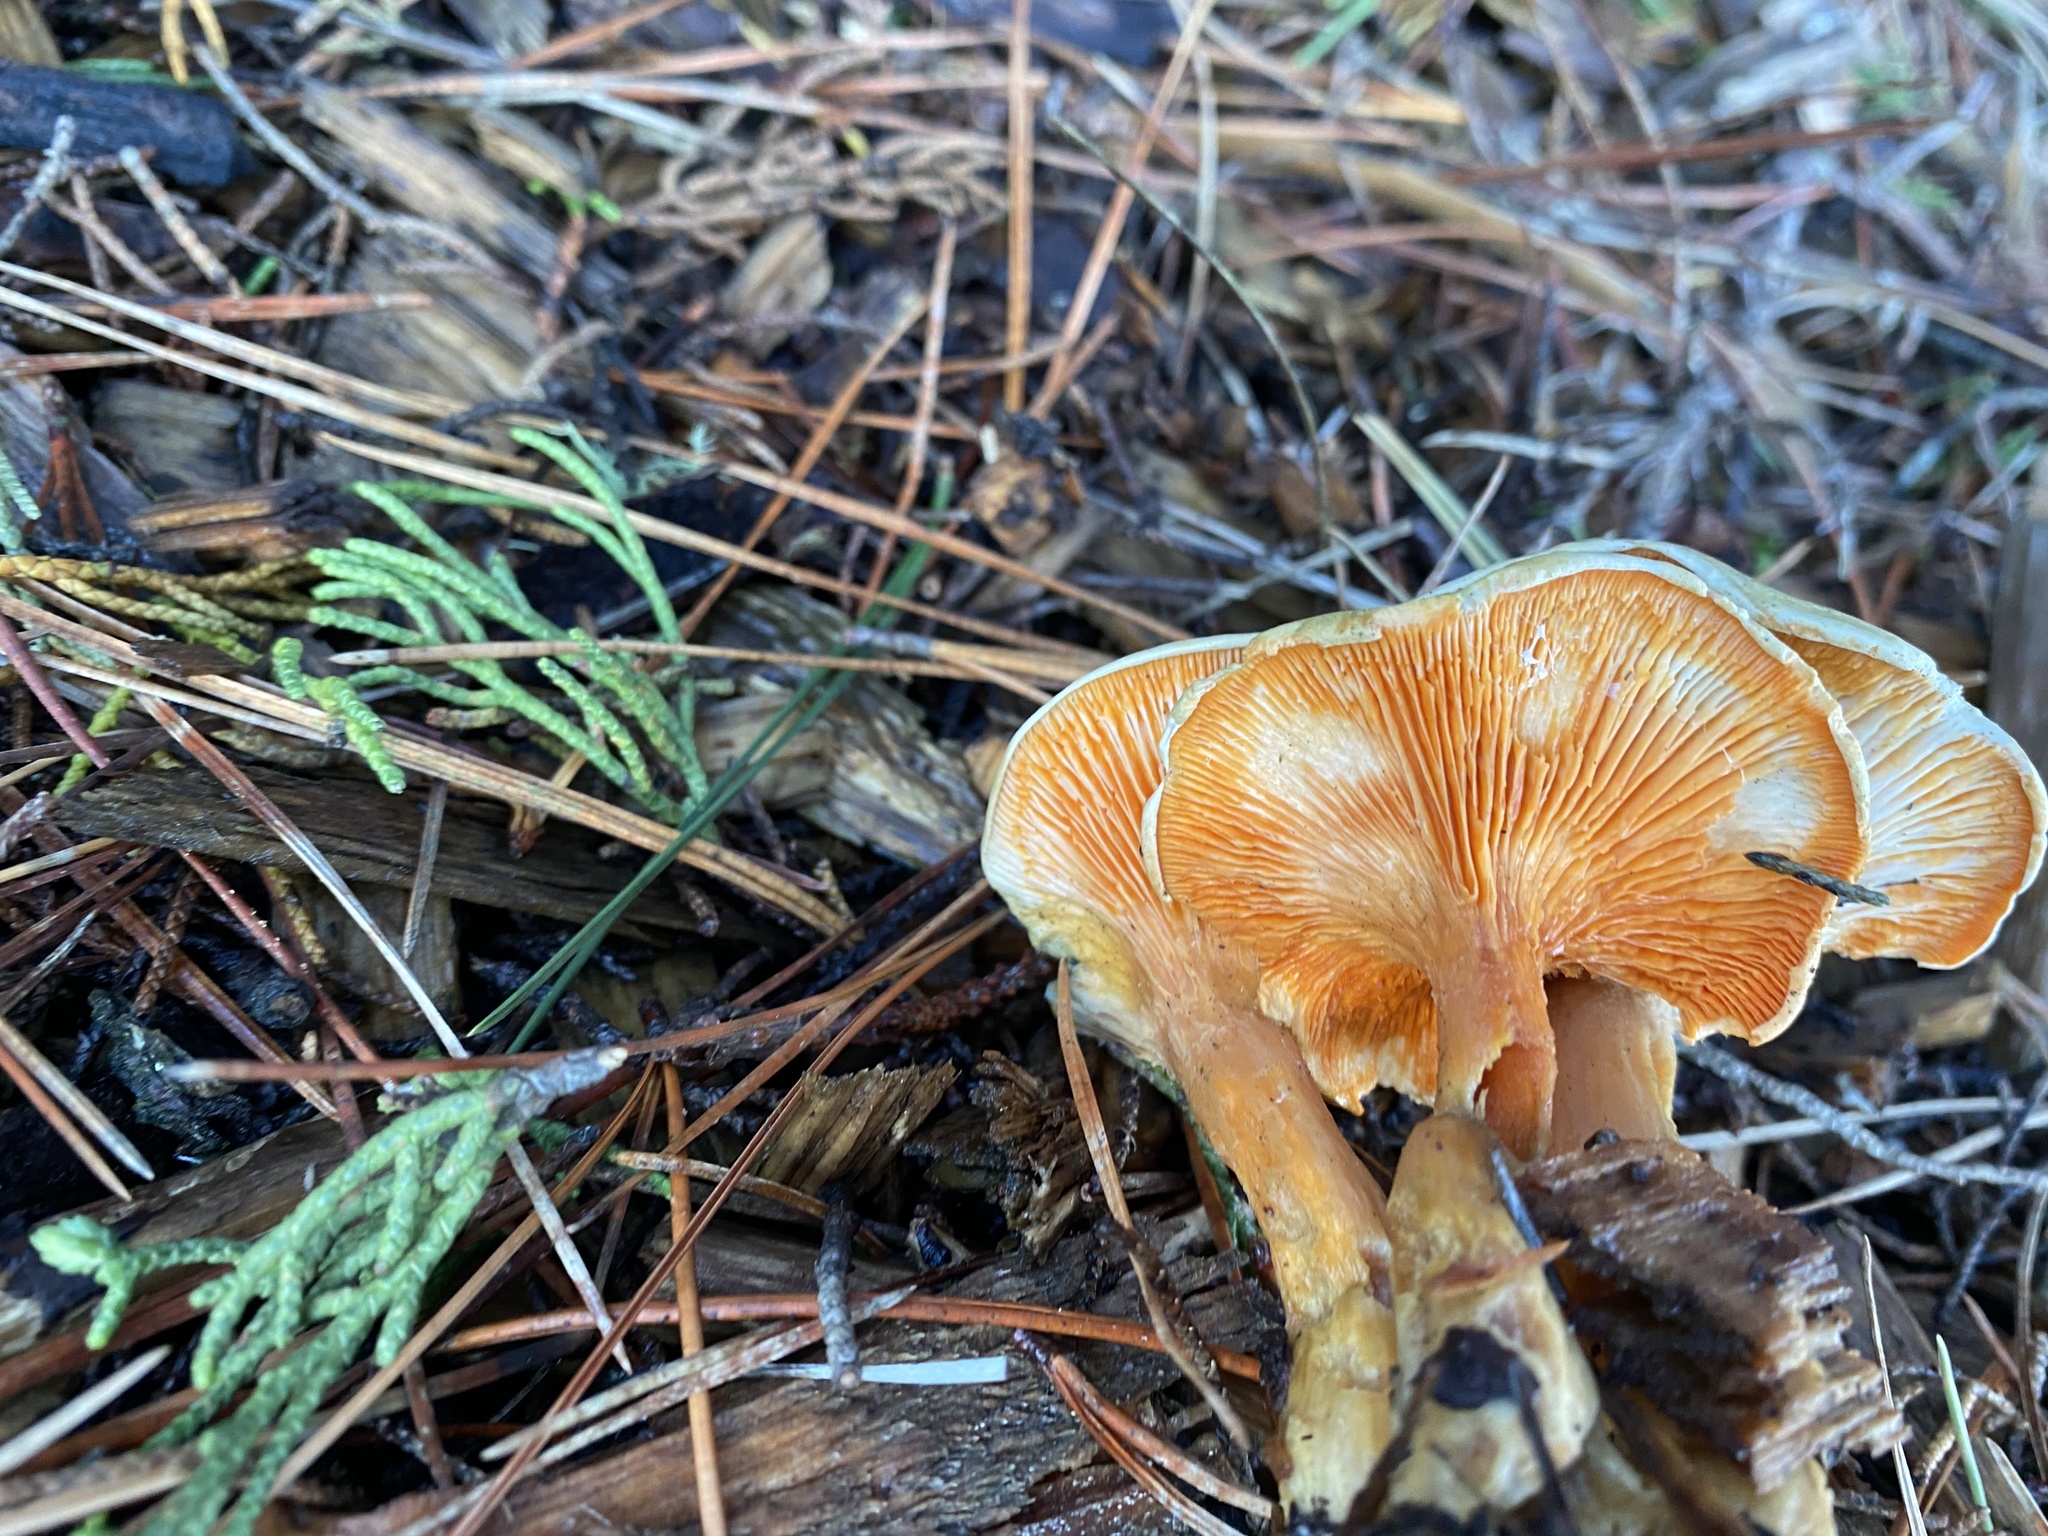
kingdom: Fungi
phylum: Basidiomycota
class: Agaricomycetes
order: Boletales
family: Hygrophoropsidaceae
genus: Hygrophoropsis
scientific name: Hygrophoropsis aurantiaca
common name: False chanterelle
